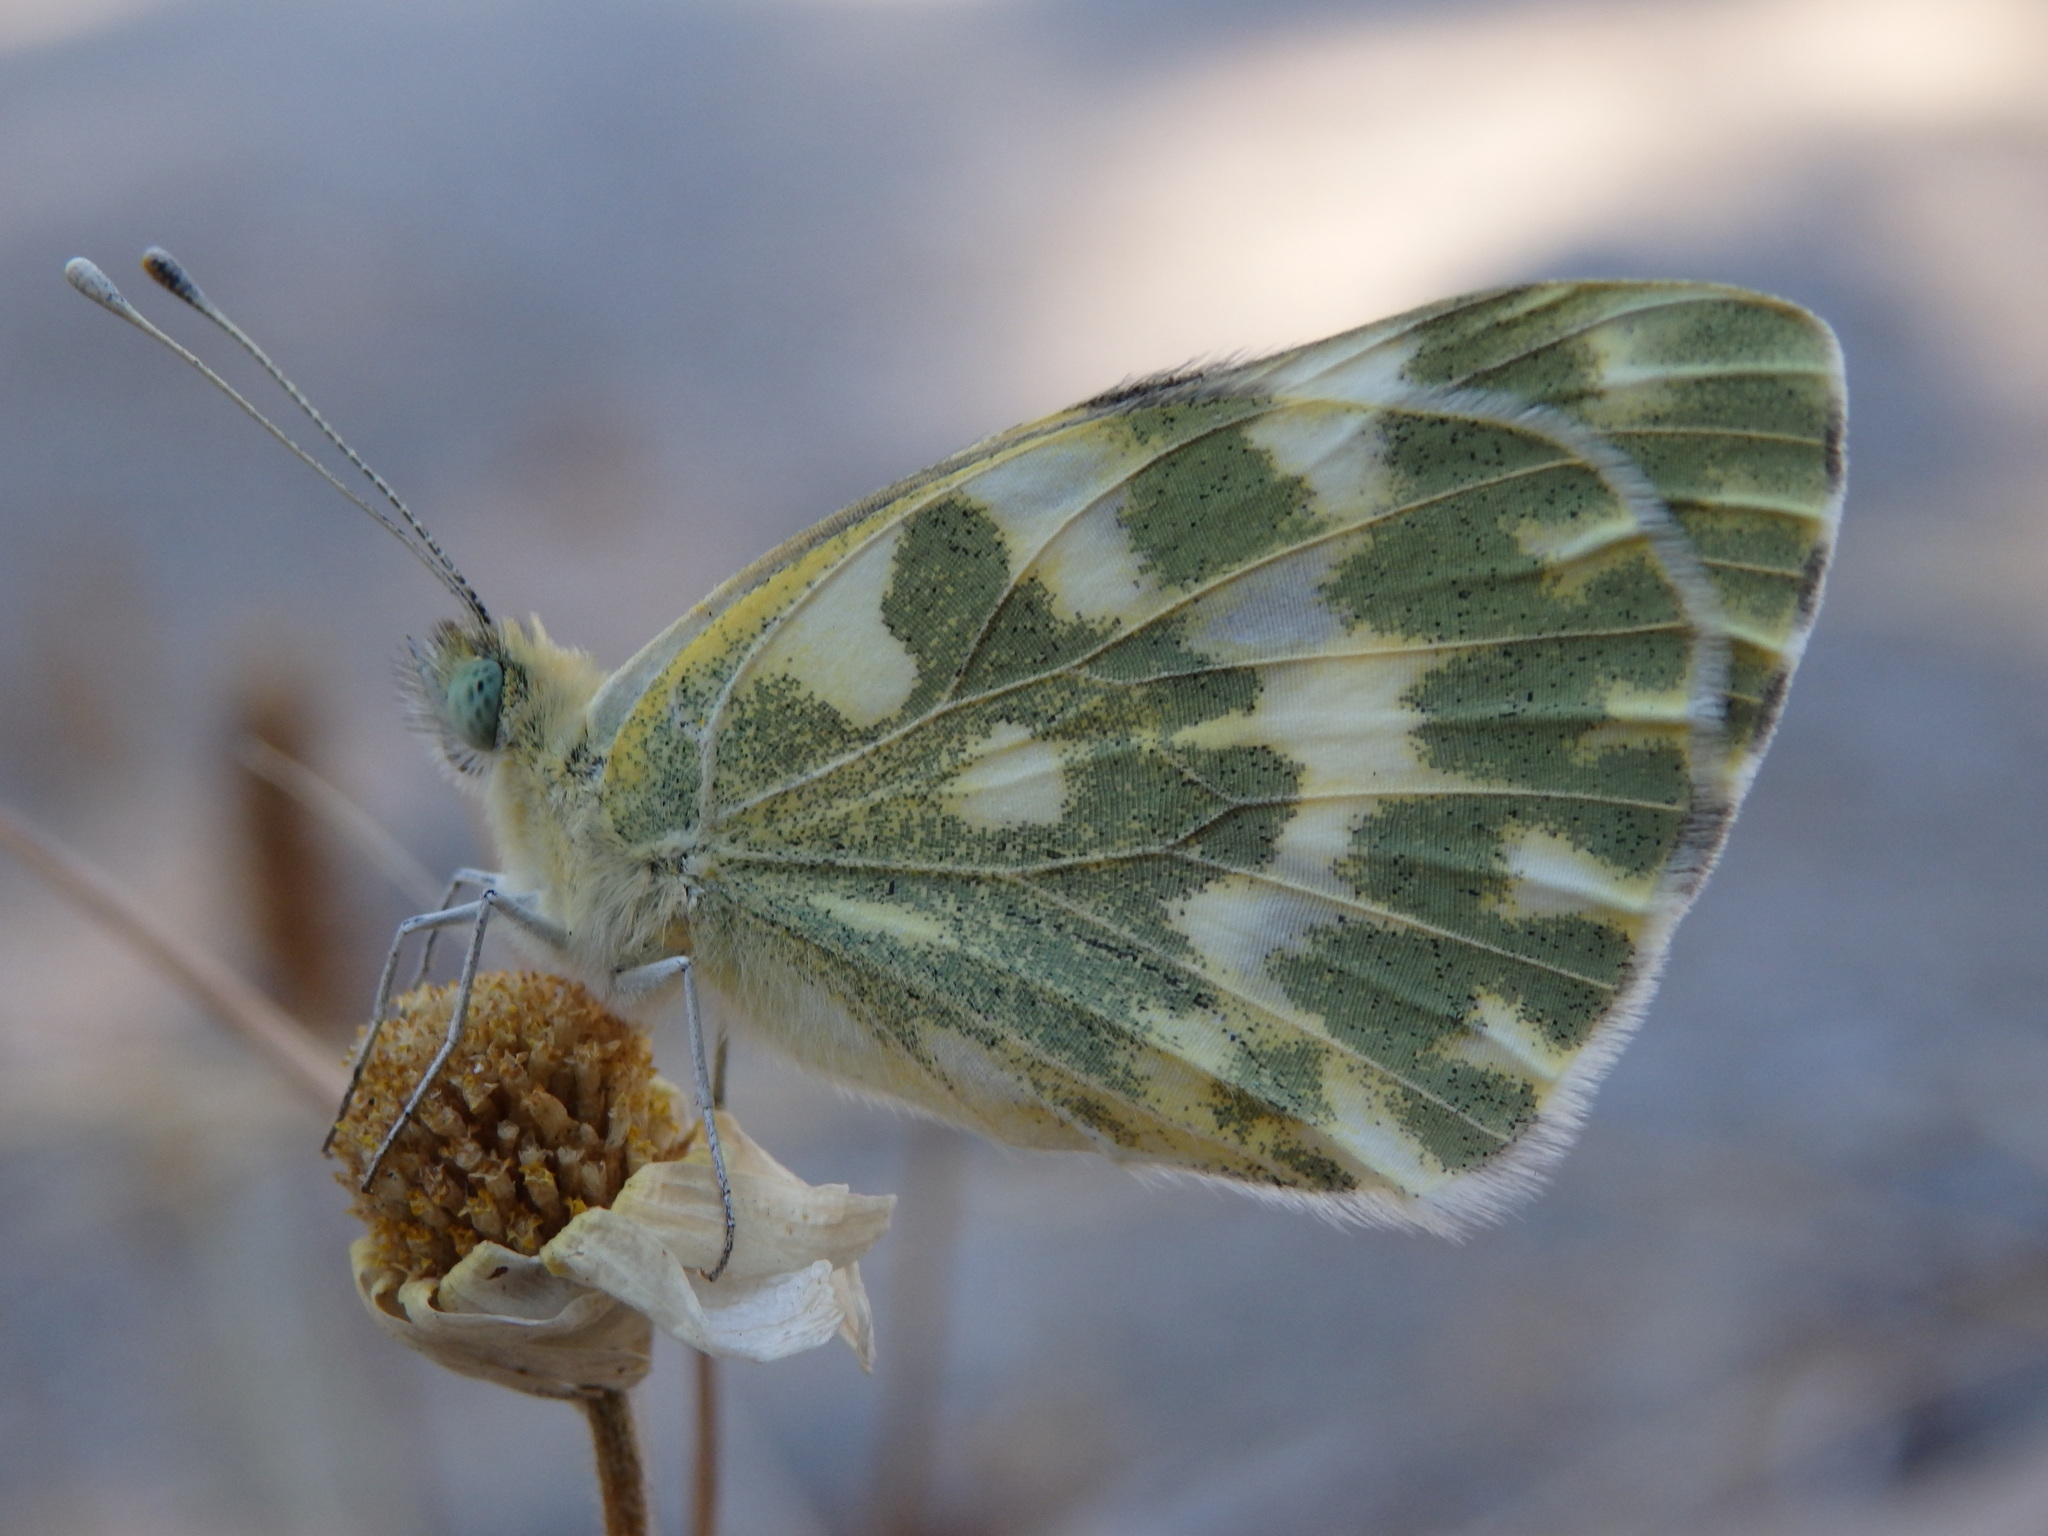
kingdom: Animalia
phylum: Arthropoda
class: Insecta
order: Lepidoptera
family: Pieridae
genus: Pontia
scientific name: Pontia daplidice
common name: Bath white
